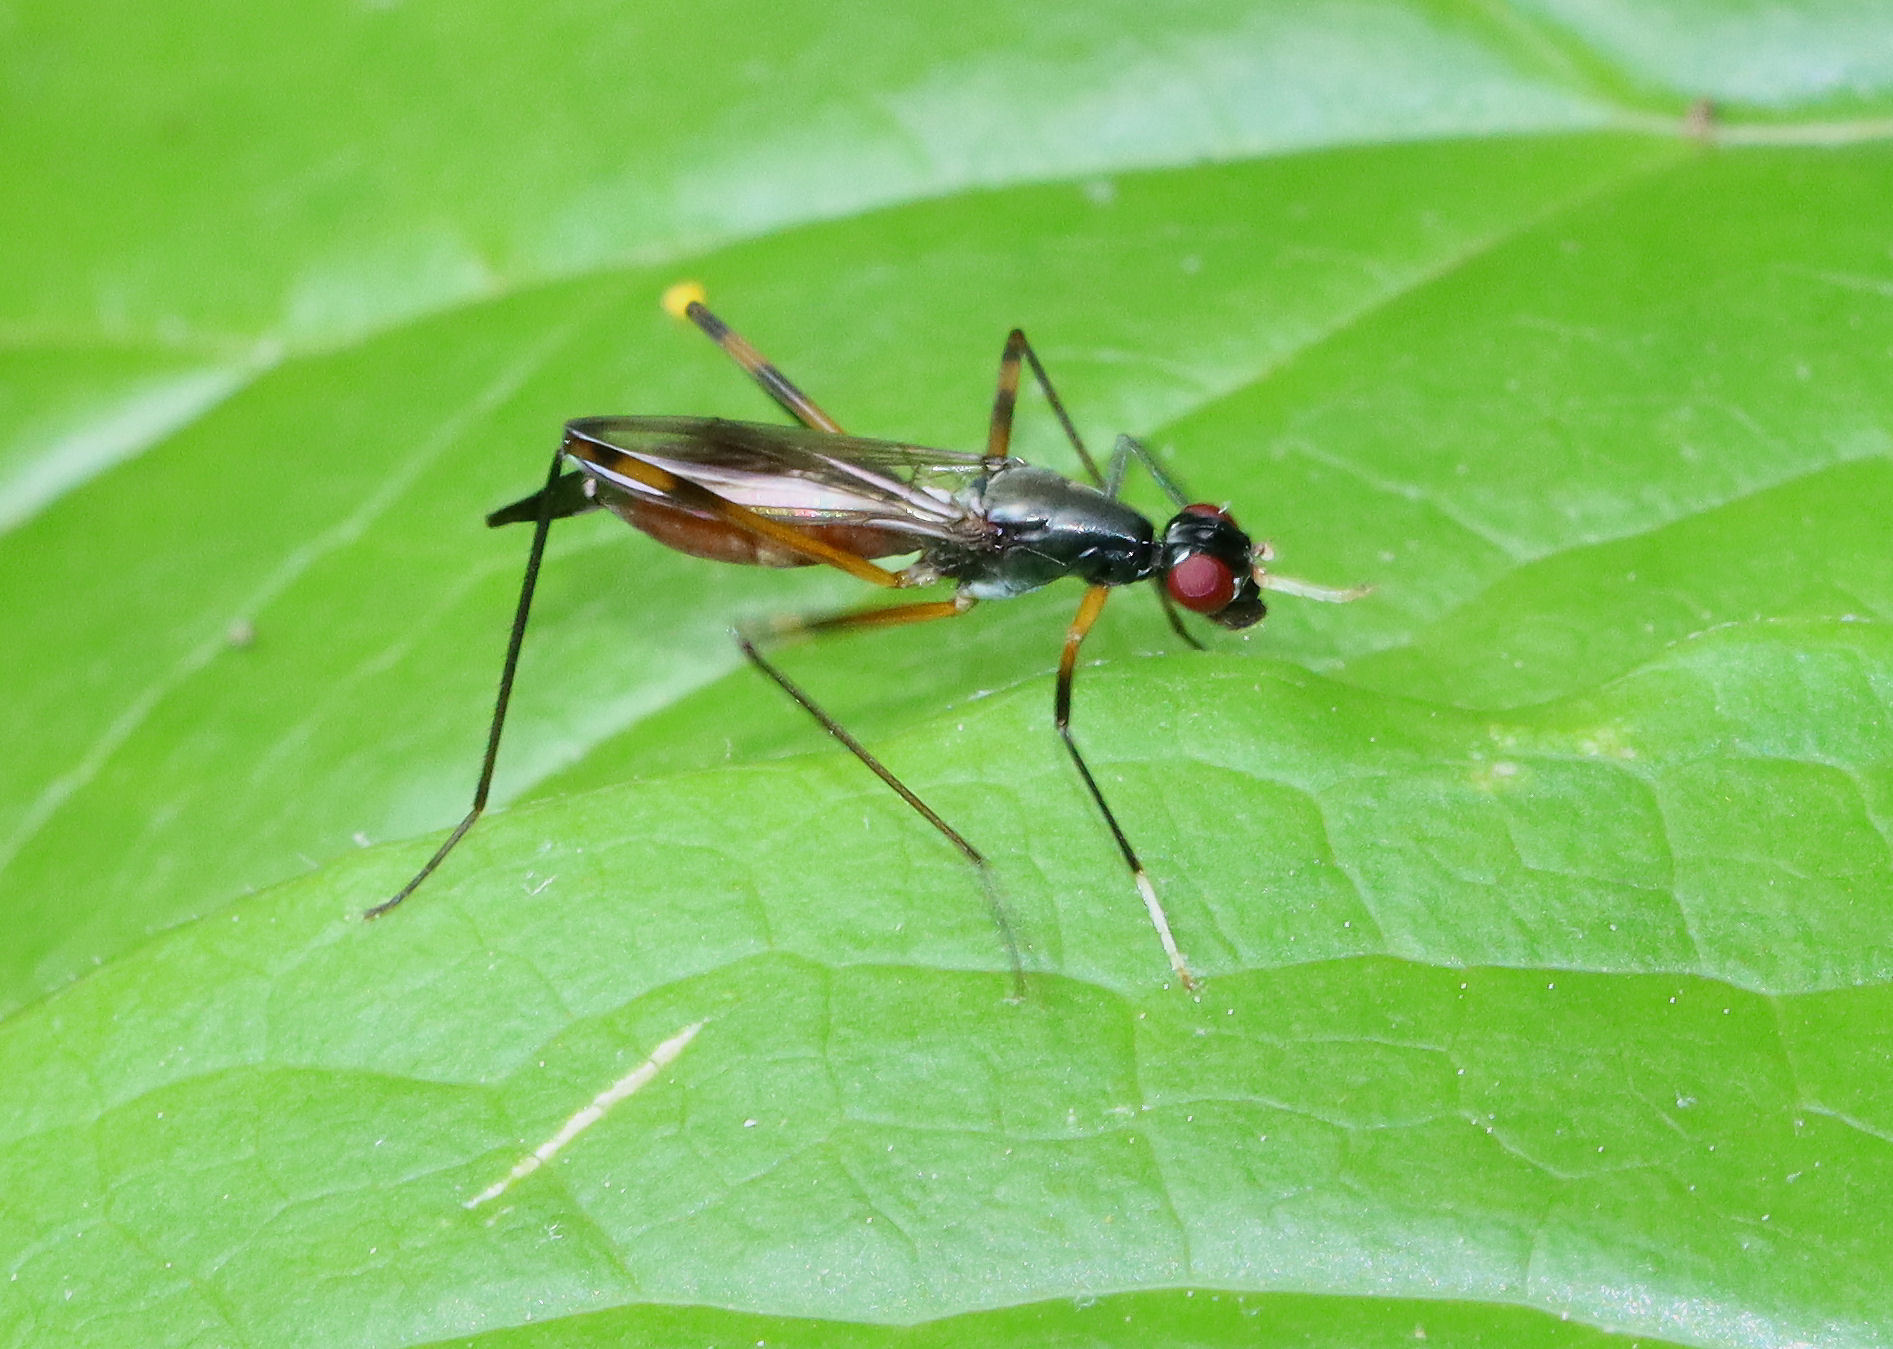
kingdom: Animalia
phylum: Arthropoda
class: Insecta
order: Diptera
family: Micropezidae
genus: Rainieria
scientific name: Rainieria antennaepes
